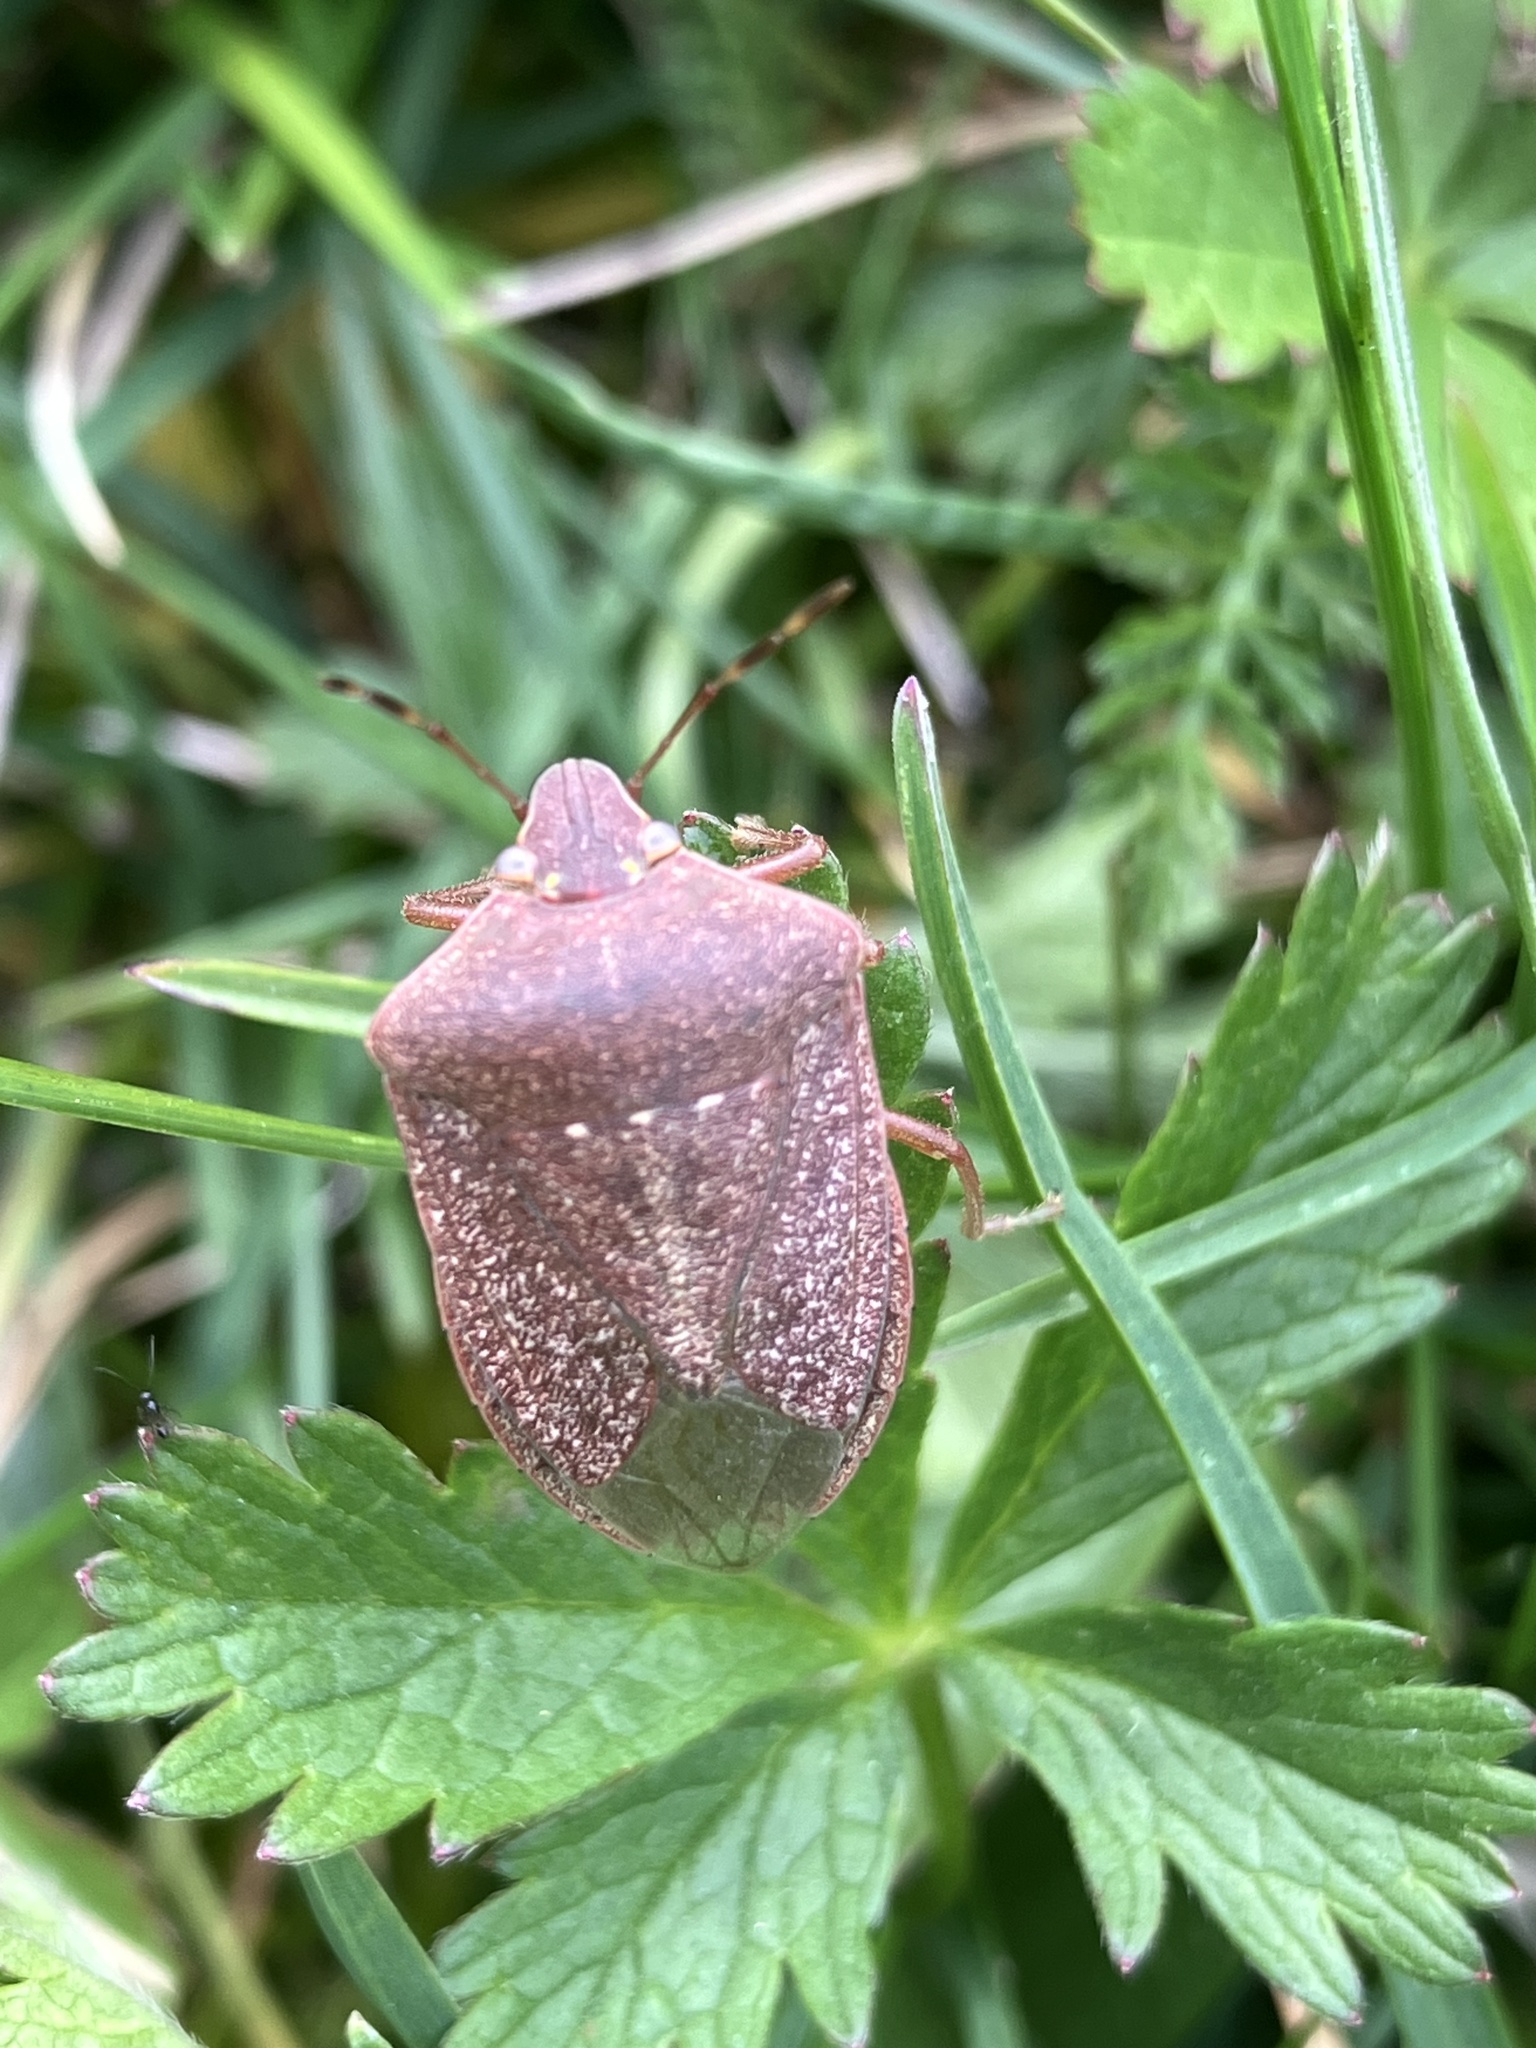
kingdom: Animalia
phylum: Arthropoda
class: Insecta
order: Hemiptera
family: Pentatomidae
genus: Nezara
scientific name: Nezara viridula
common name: Southern green stink bug
